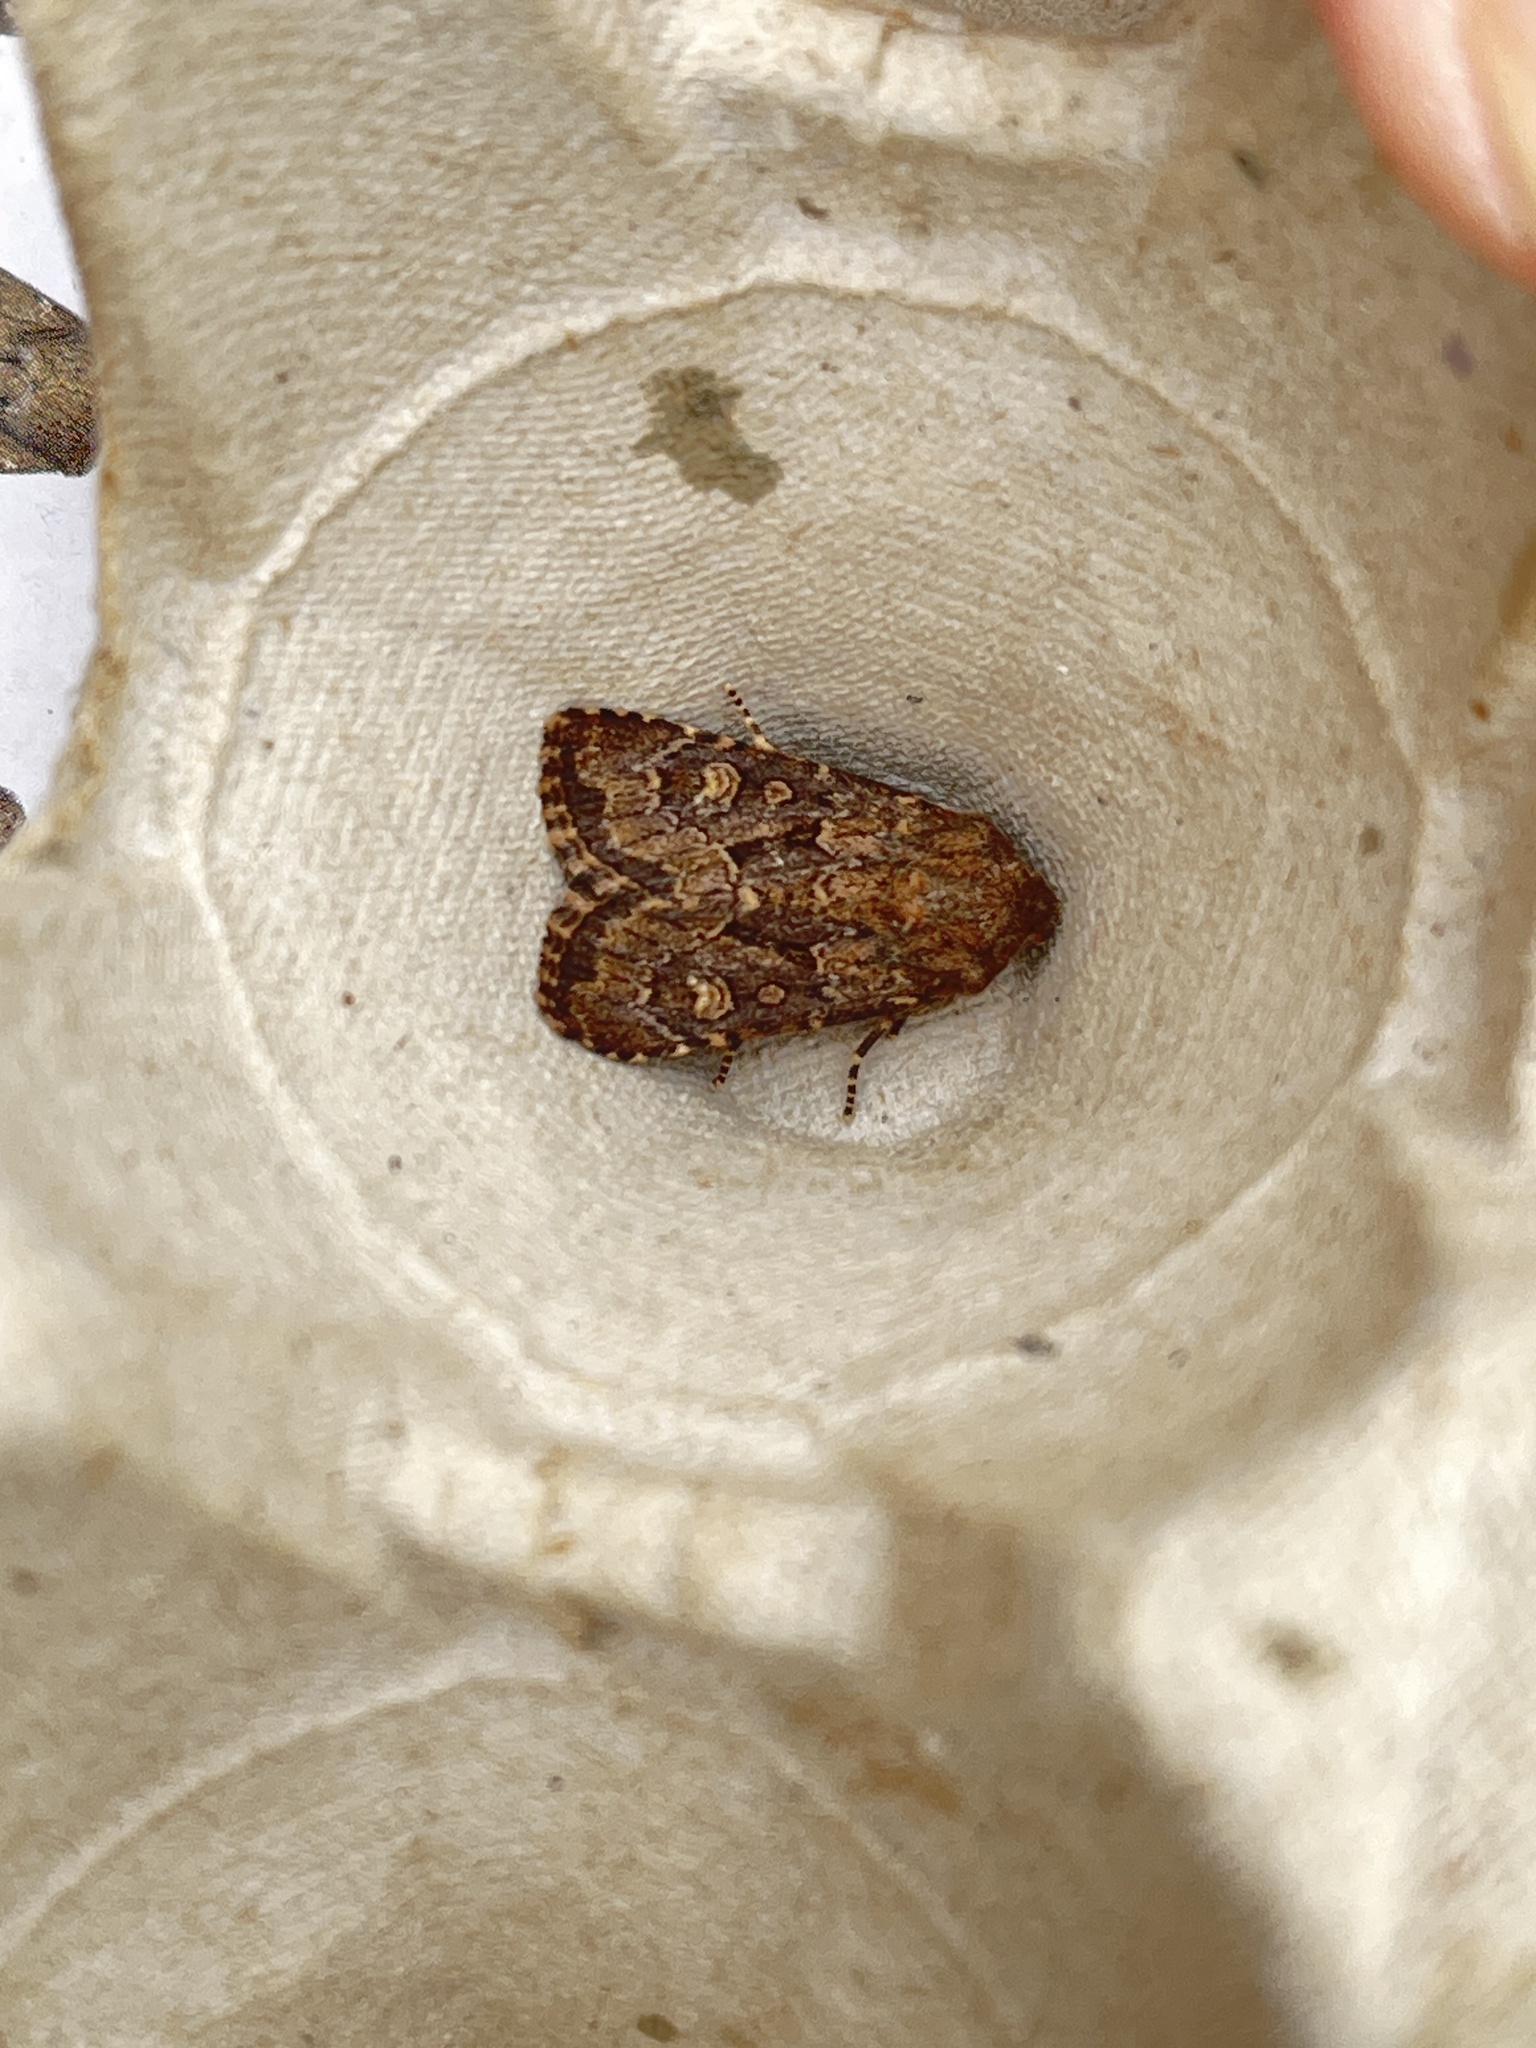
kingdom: Animalia
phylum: Arthropoda
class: Insecta
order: Lepidoptera
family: Noctuidae
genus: Luperina
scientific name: Luperina testacea
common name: Flounced rustic
